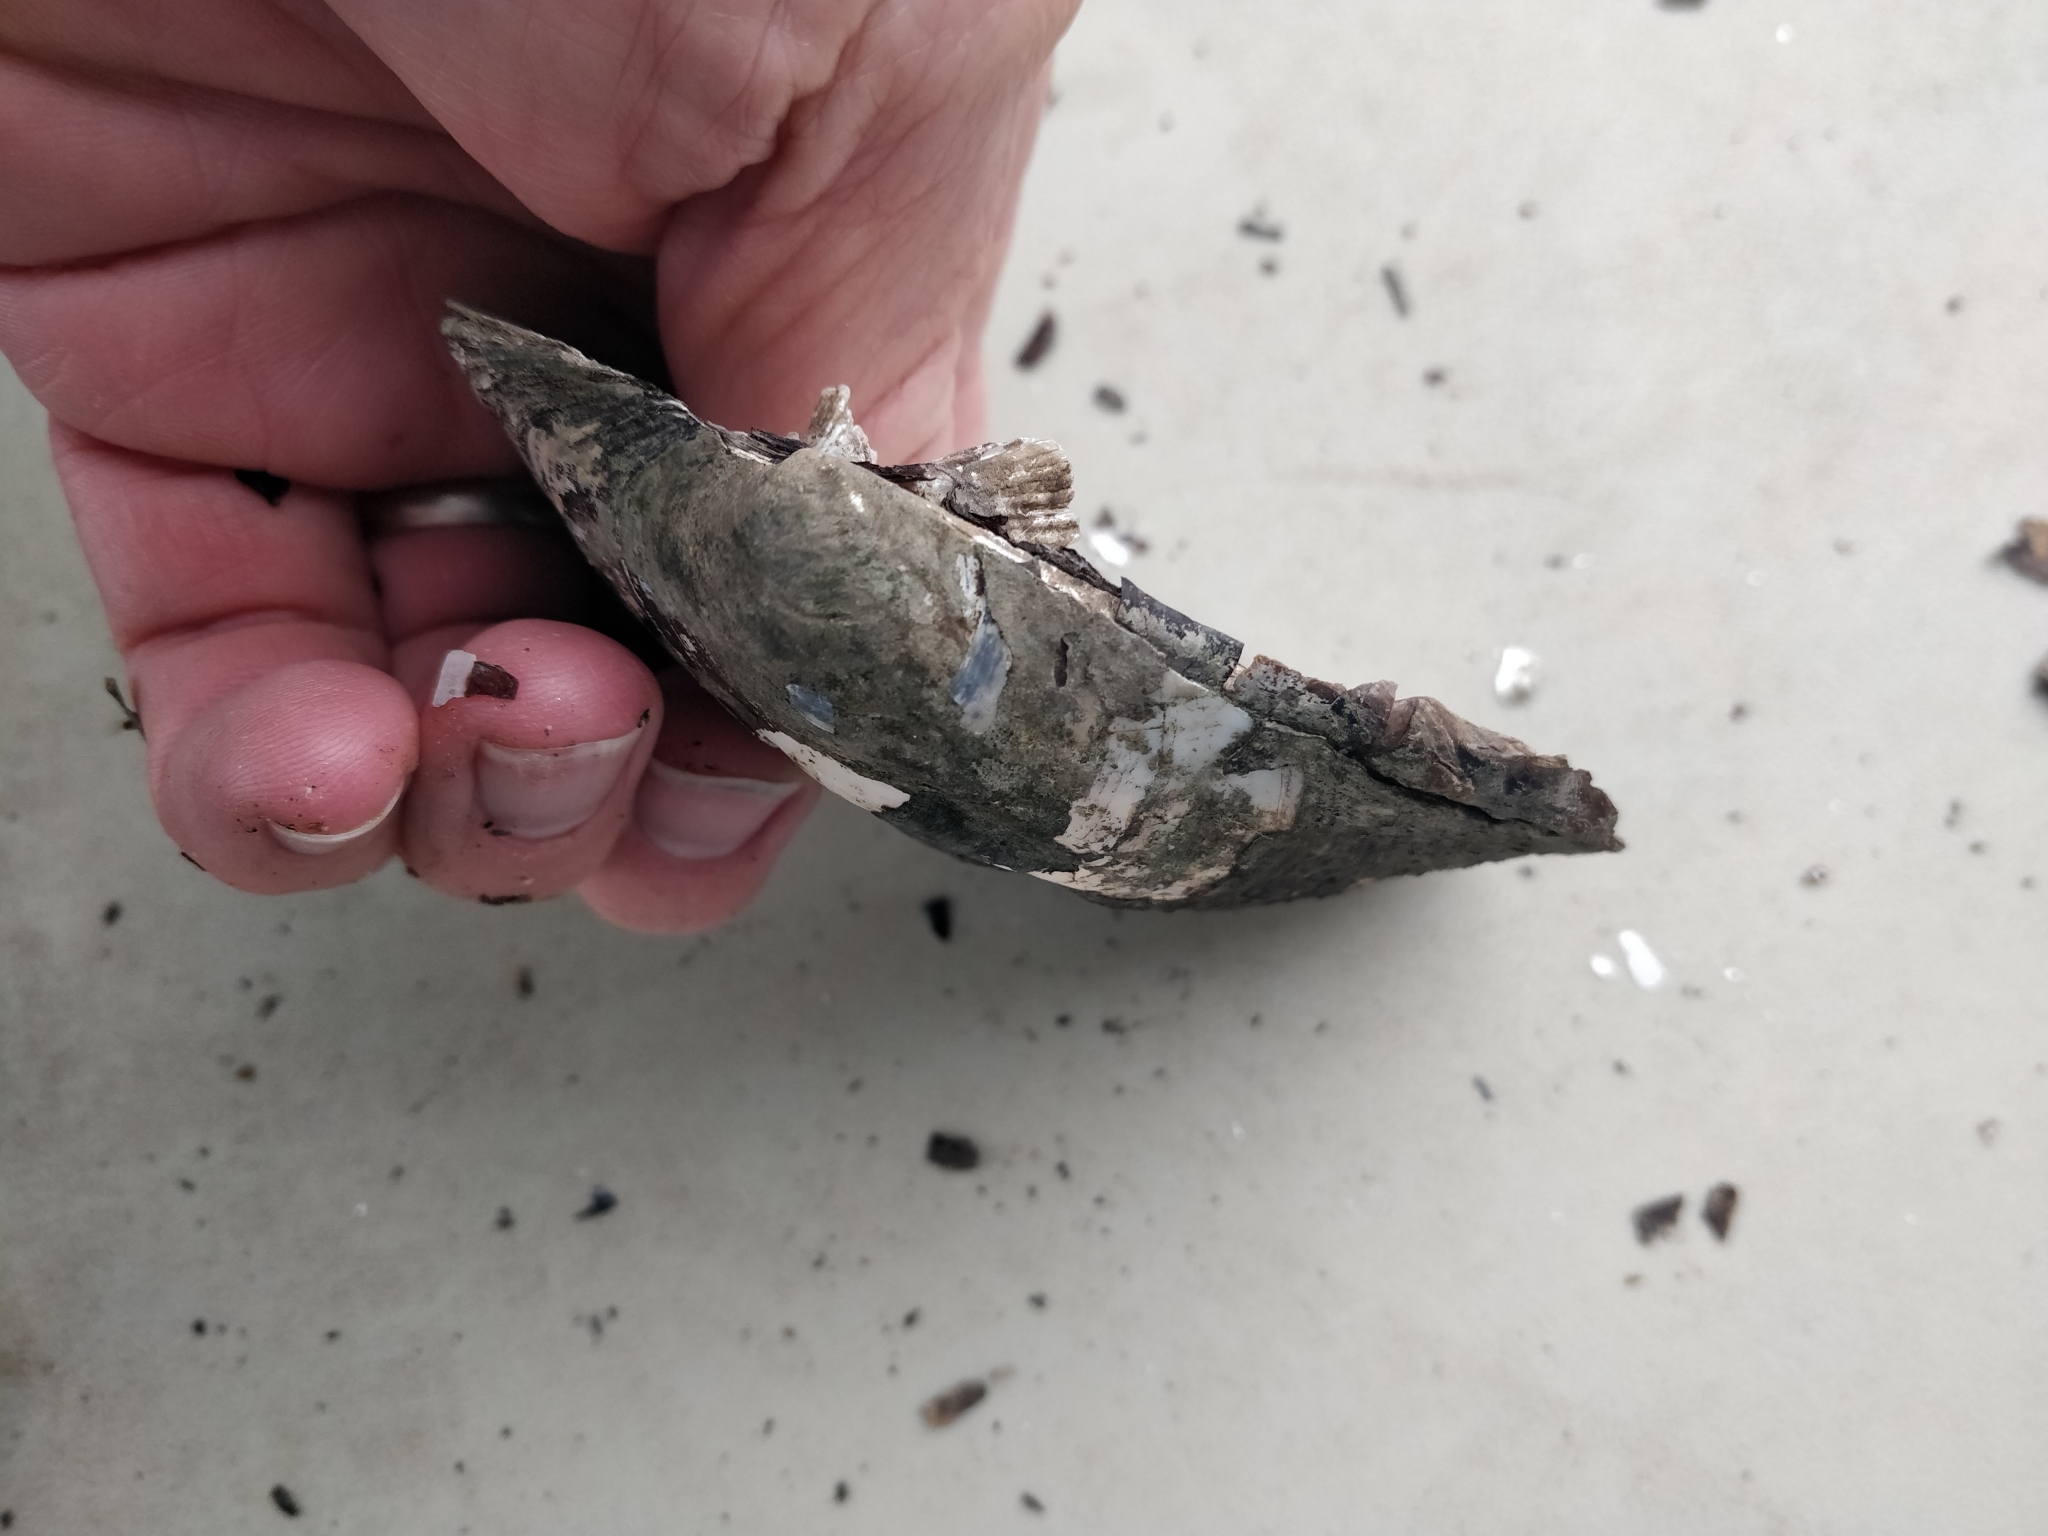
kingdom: Animalia
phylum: Mollusca
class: Bivalvia
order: Unionida
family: Unionidae
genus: Amblema
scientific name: Amblema plicata
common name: Threeridge
